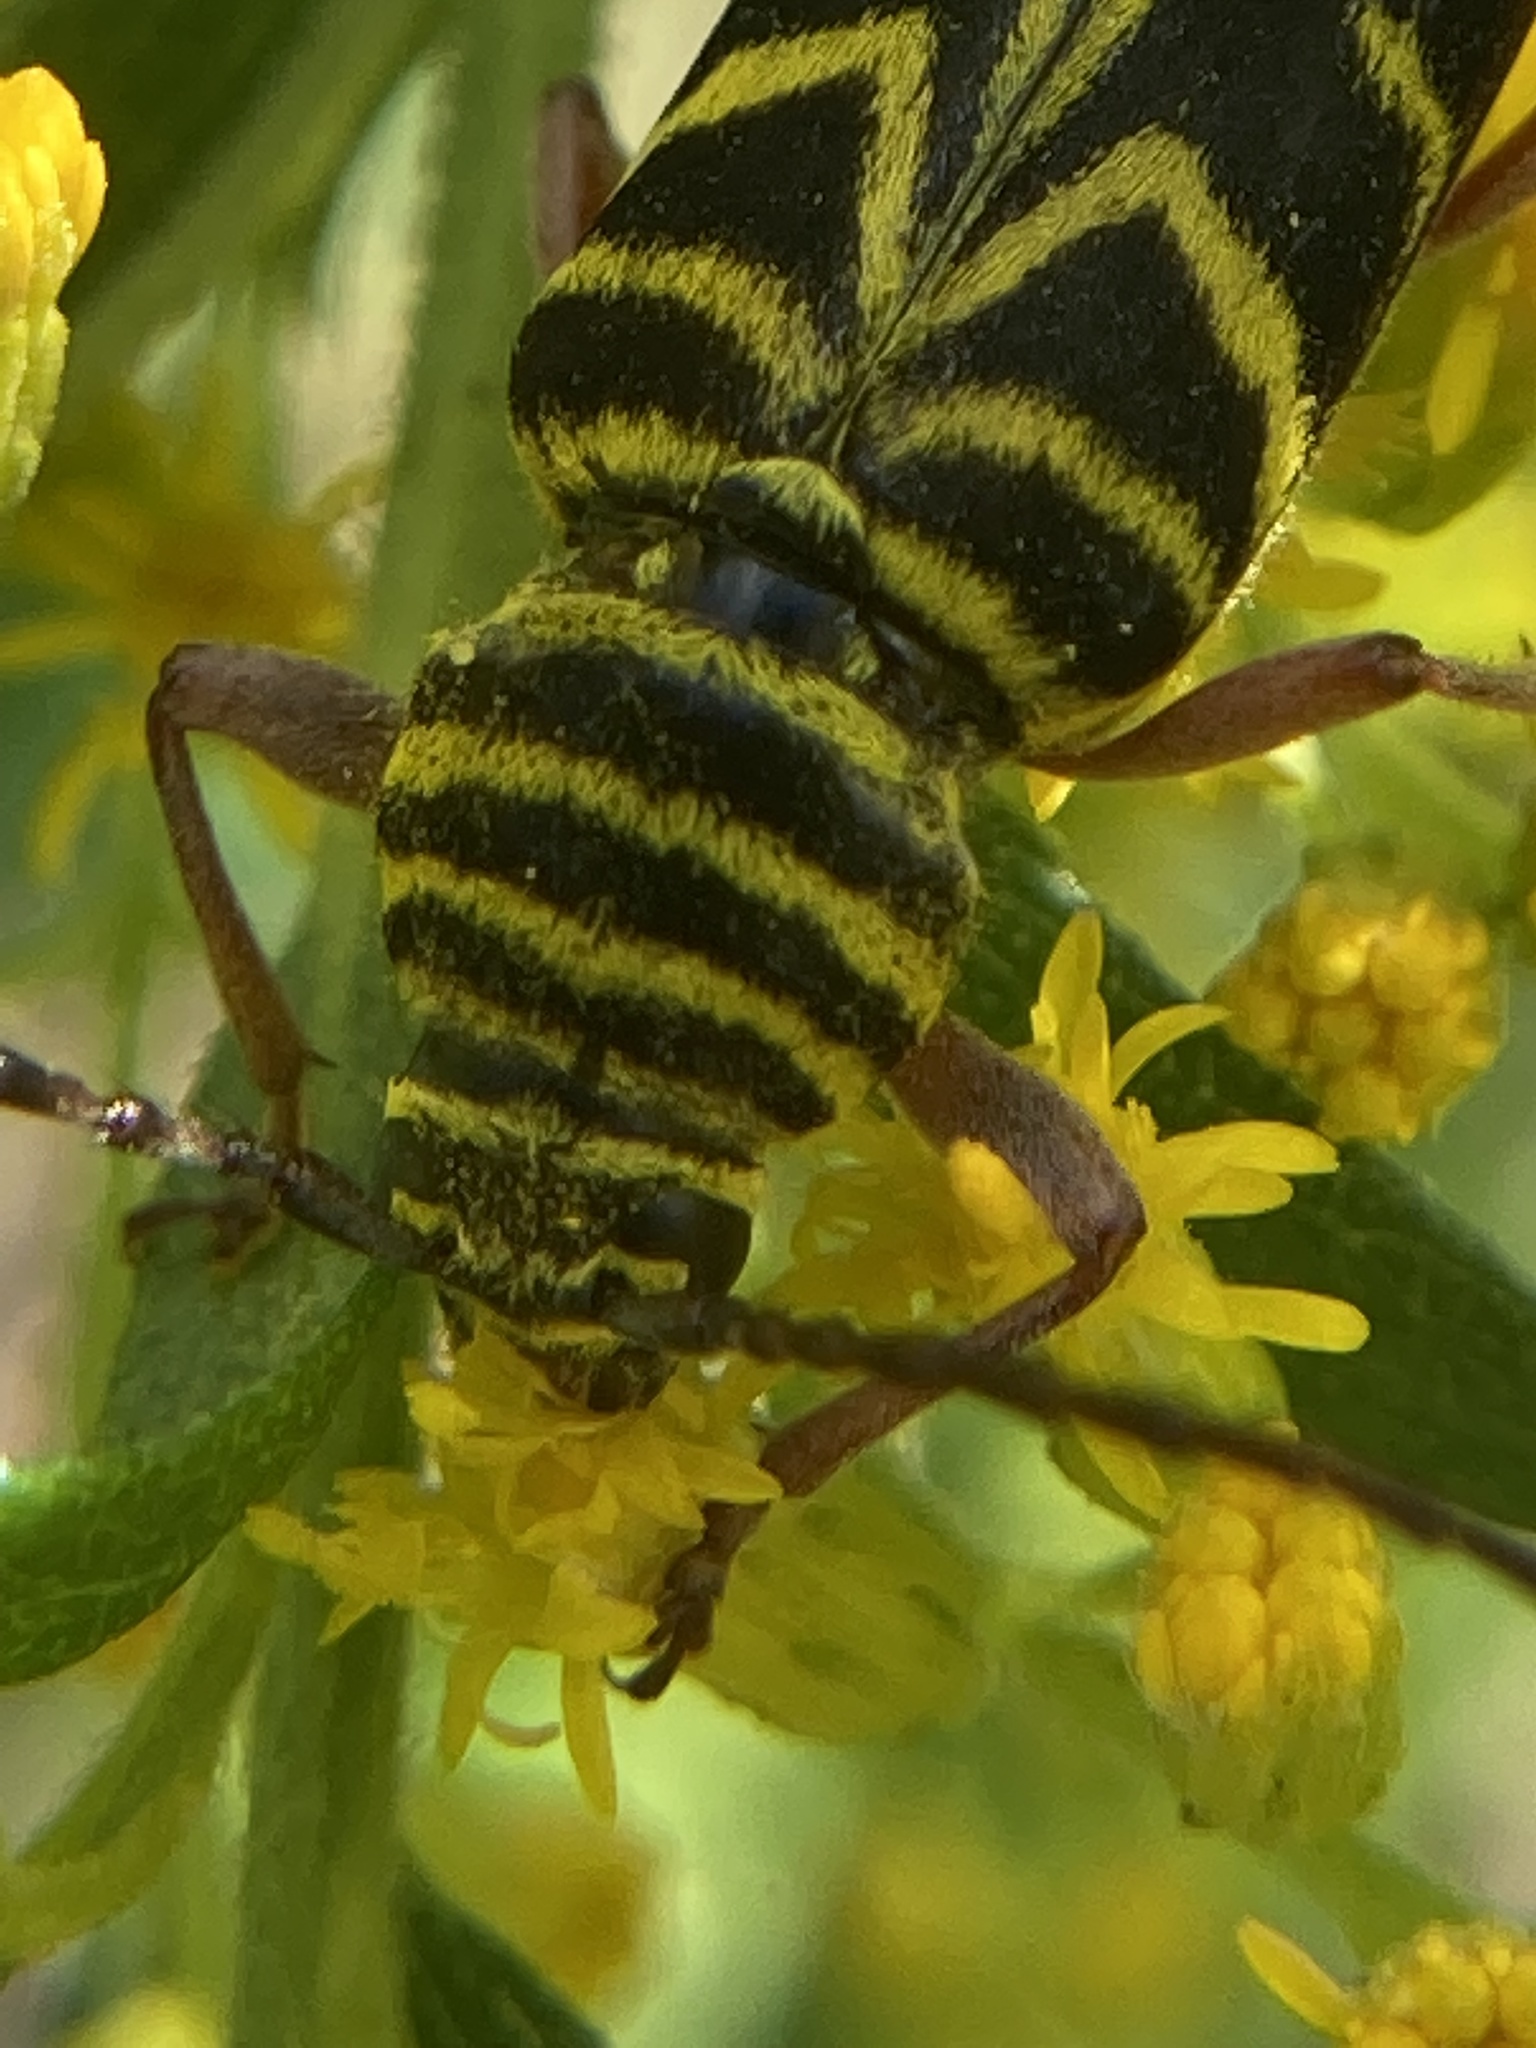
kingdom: Animalia
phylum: Arthropoda
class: Insecta
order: Coleoptera
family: Cerambycidae
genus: Megacyllene
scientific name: Megacyllene robiniae
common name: Locust borer
